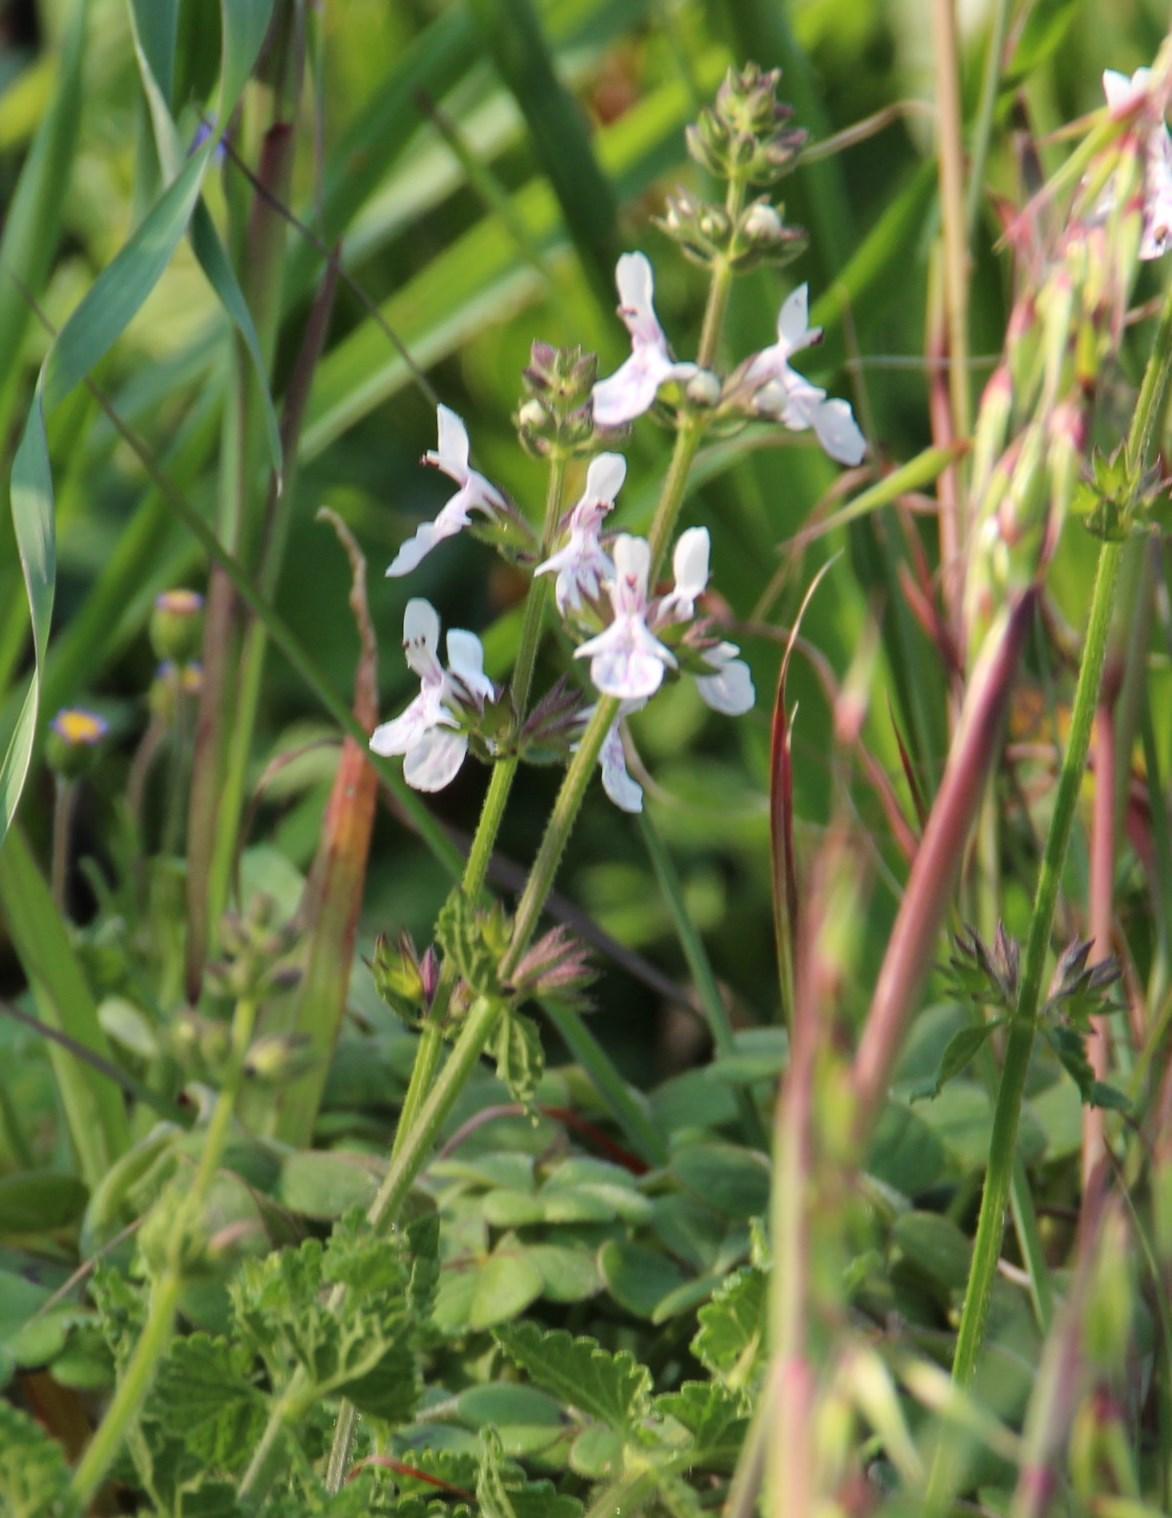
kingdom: Plantae
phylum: Tracheophyta
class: Magnoliopsida
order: Lamiales
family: Lamiaceae
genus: Stachys
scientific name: Stachys aethiopica
